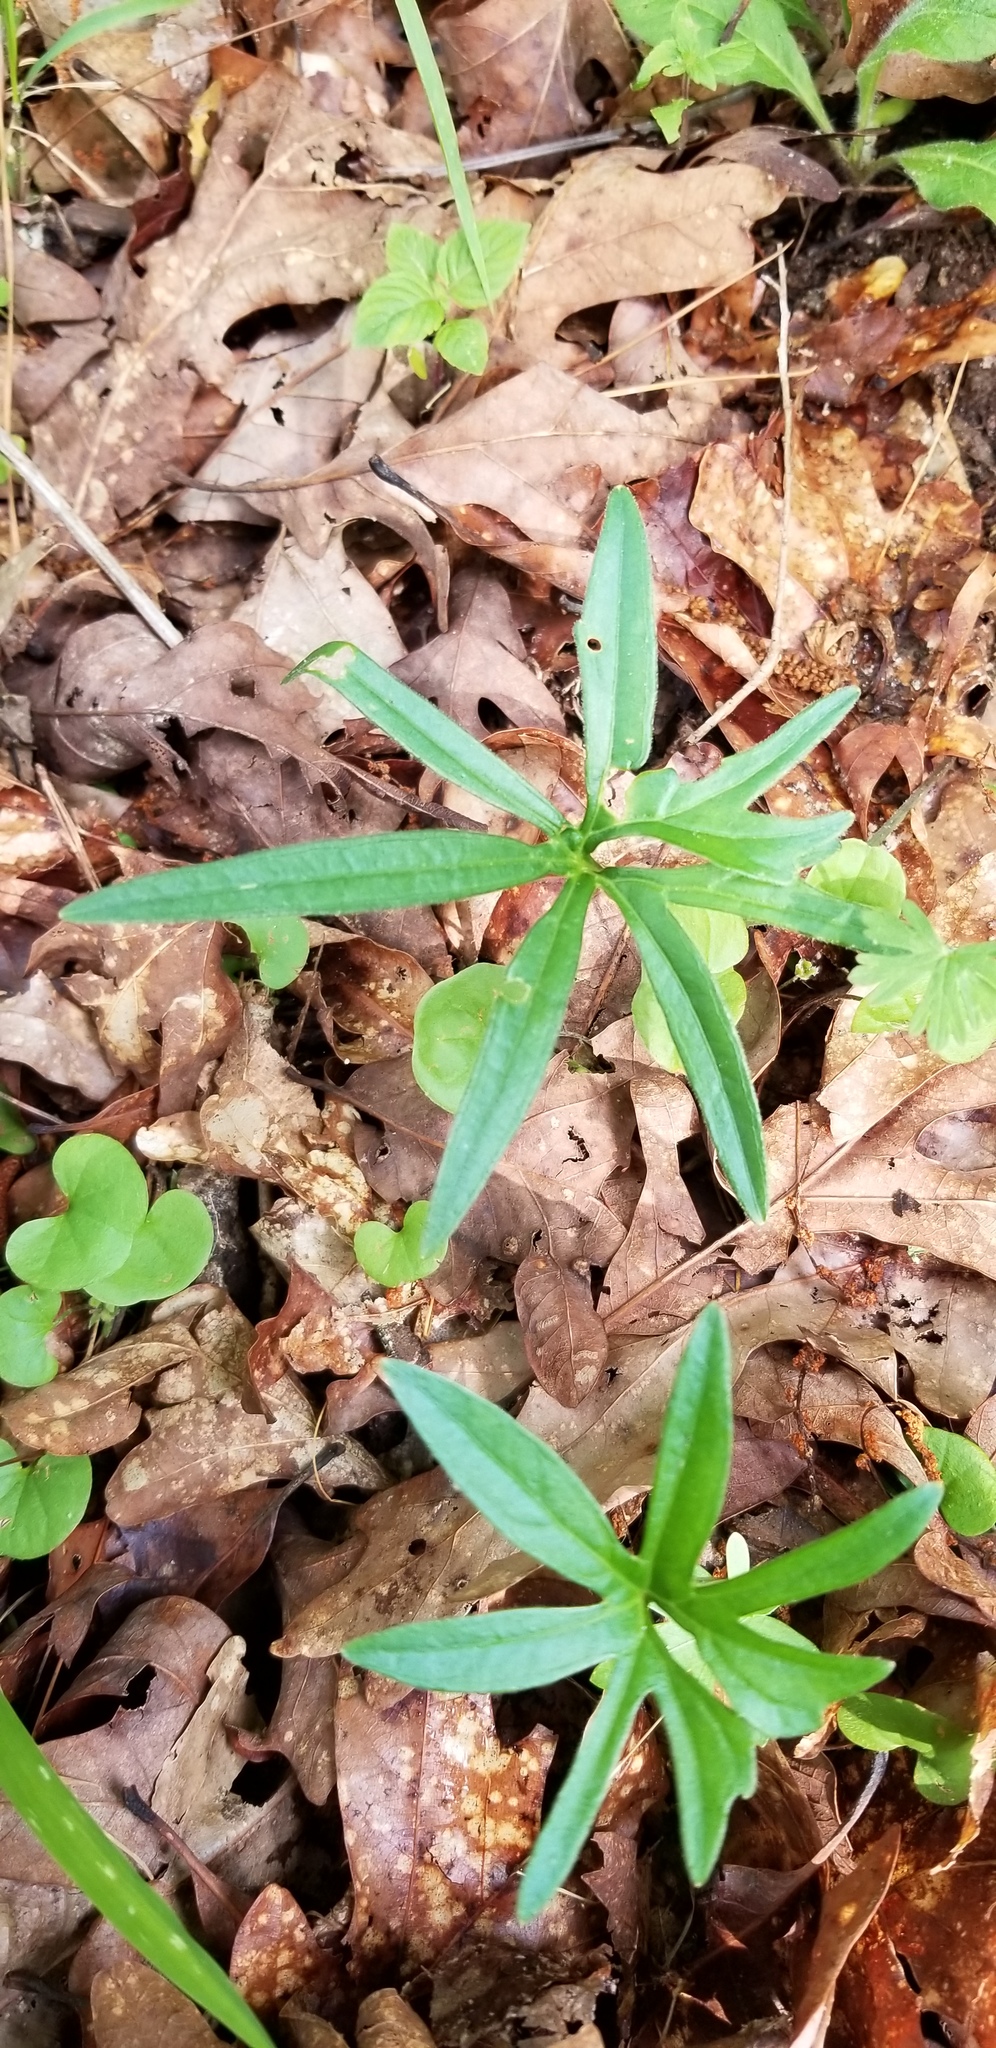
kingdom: Plantae
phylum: Tracheophyta
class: Magnoliopsida
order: Malpighiales
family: Violaceae
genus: Viola
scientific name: Viola palmata
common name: Early blue violet
